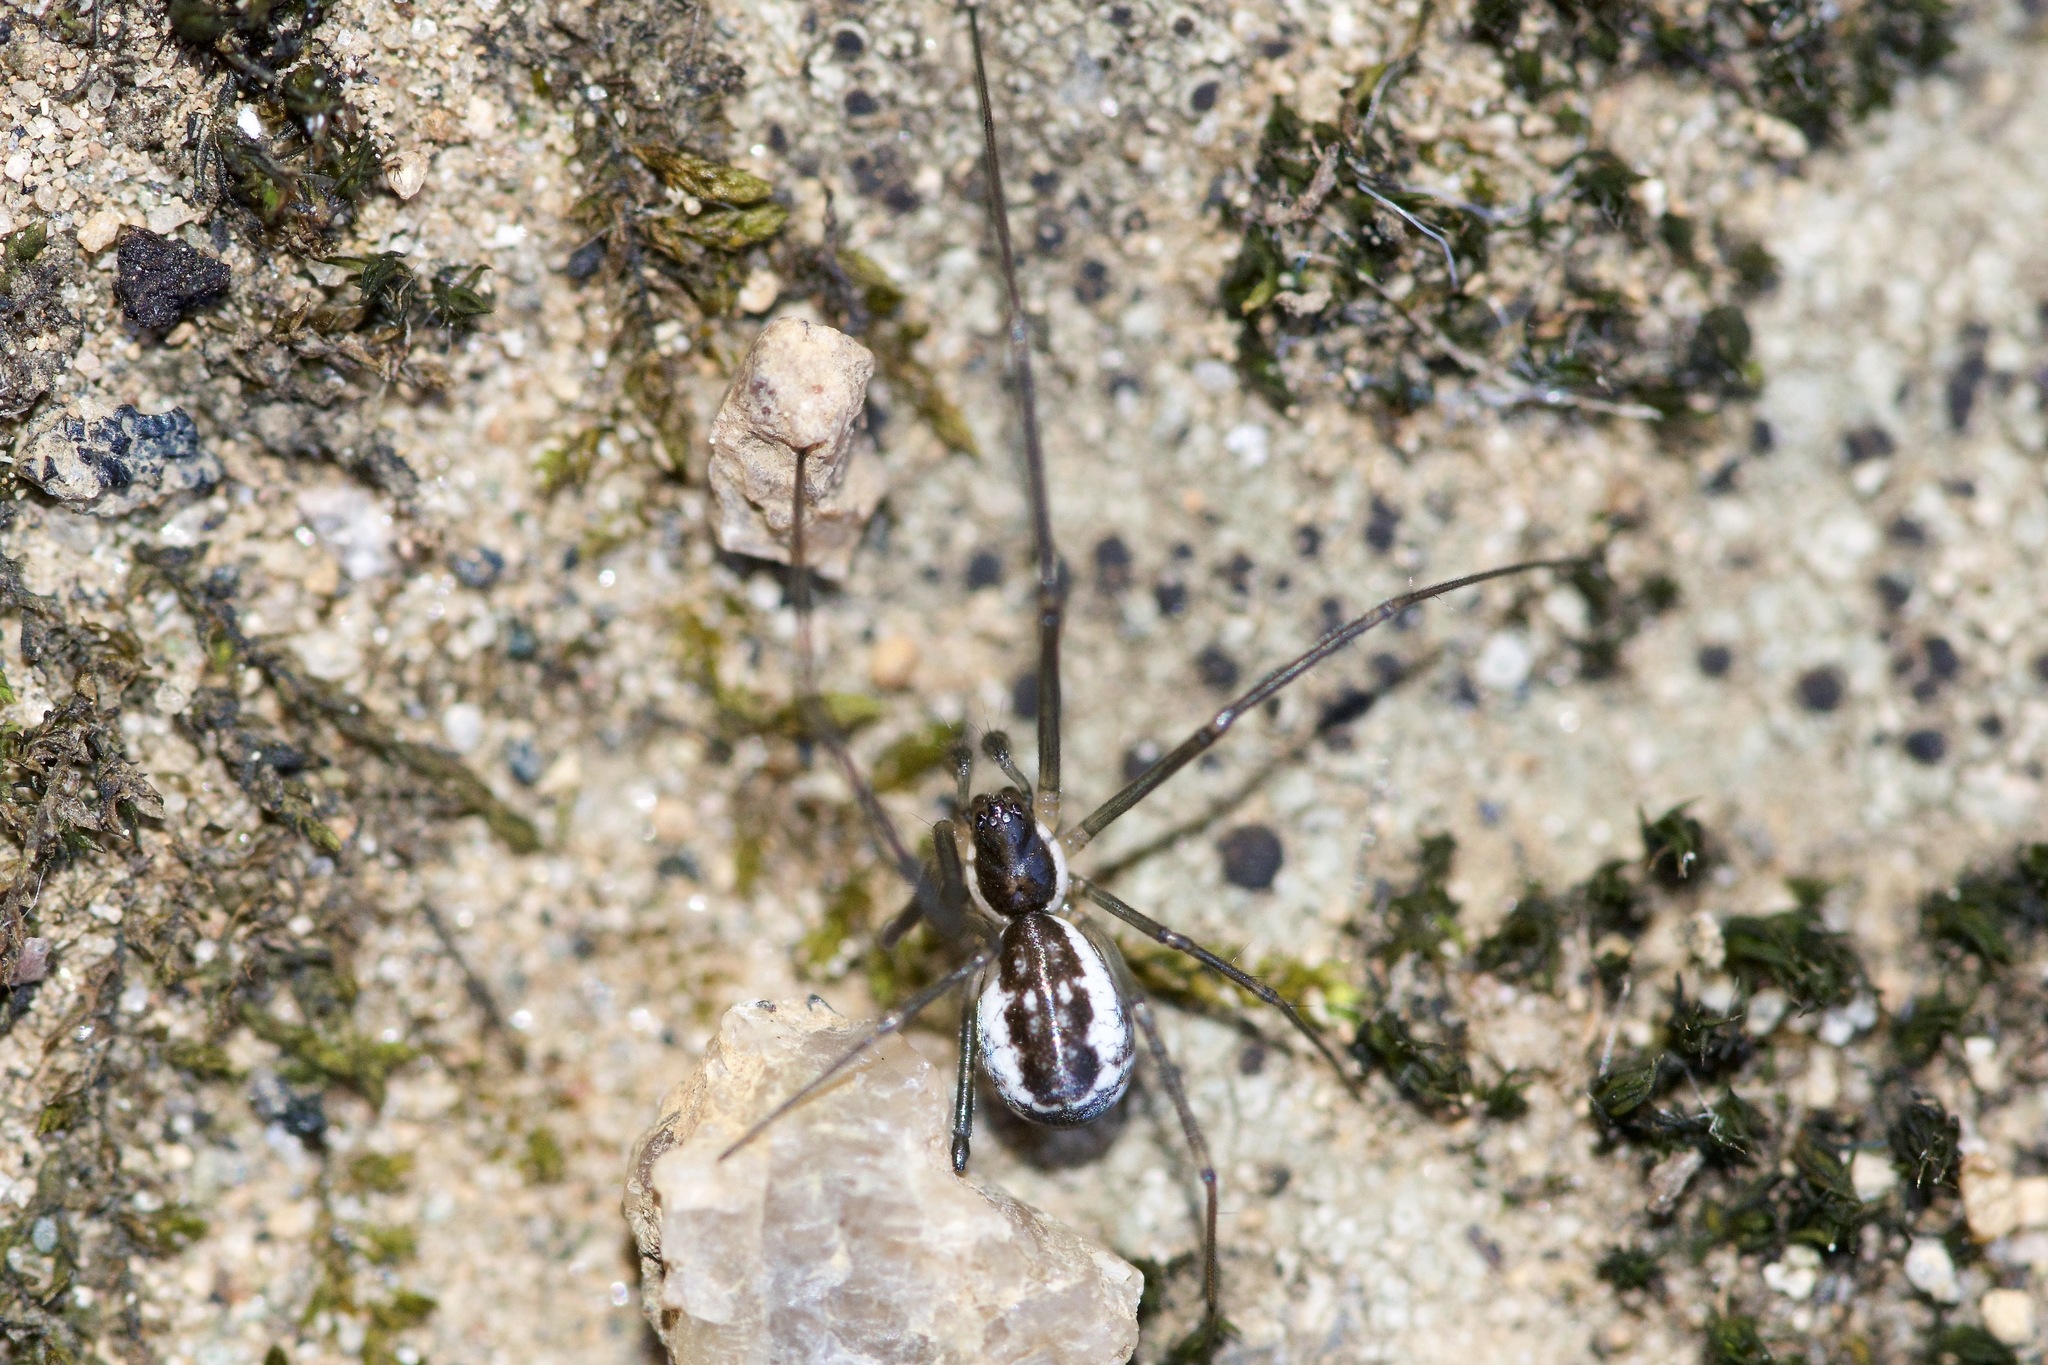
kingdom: Animalia
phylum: Arthropoda
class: Arachnida
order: Araneae
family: Linyphiidae
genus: Neriene
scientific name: Neriene radiata
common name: Filmy dome spider
